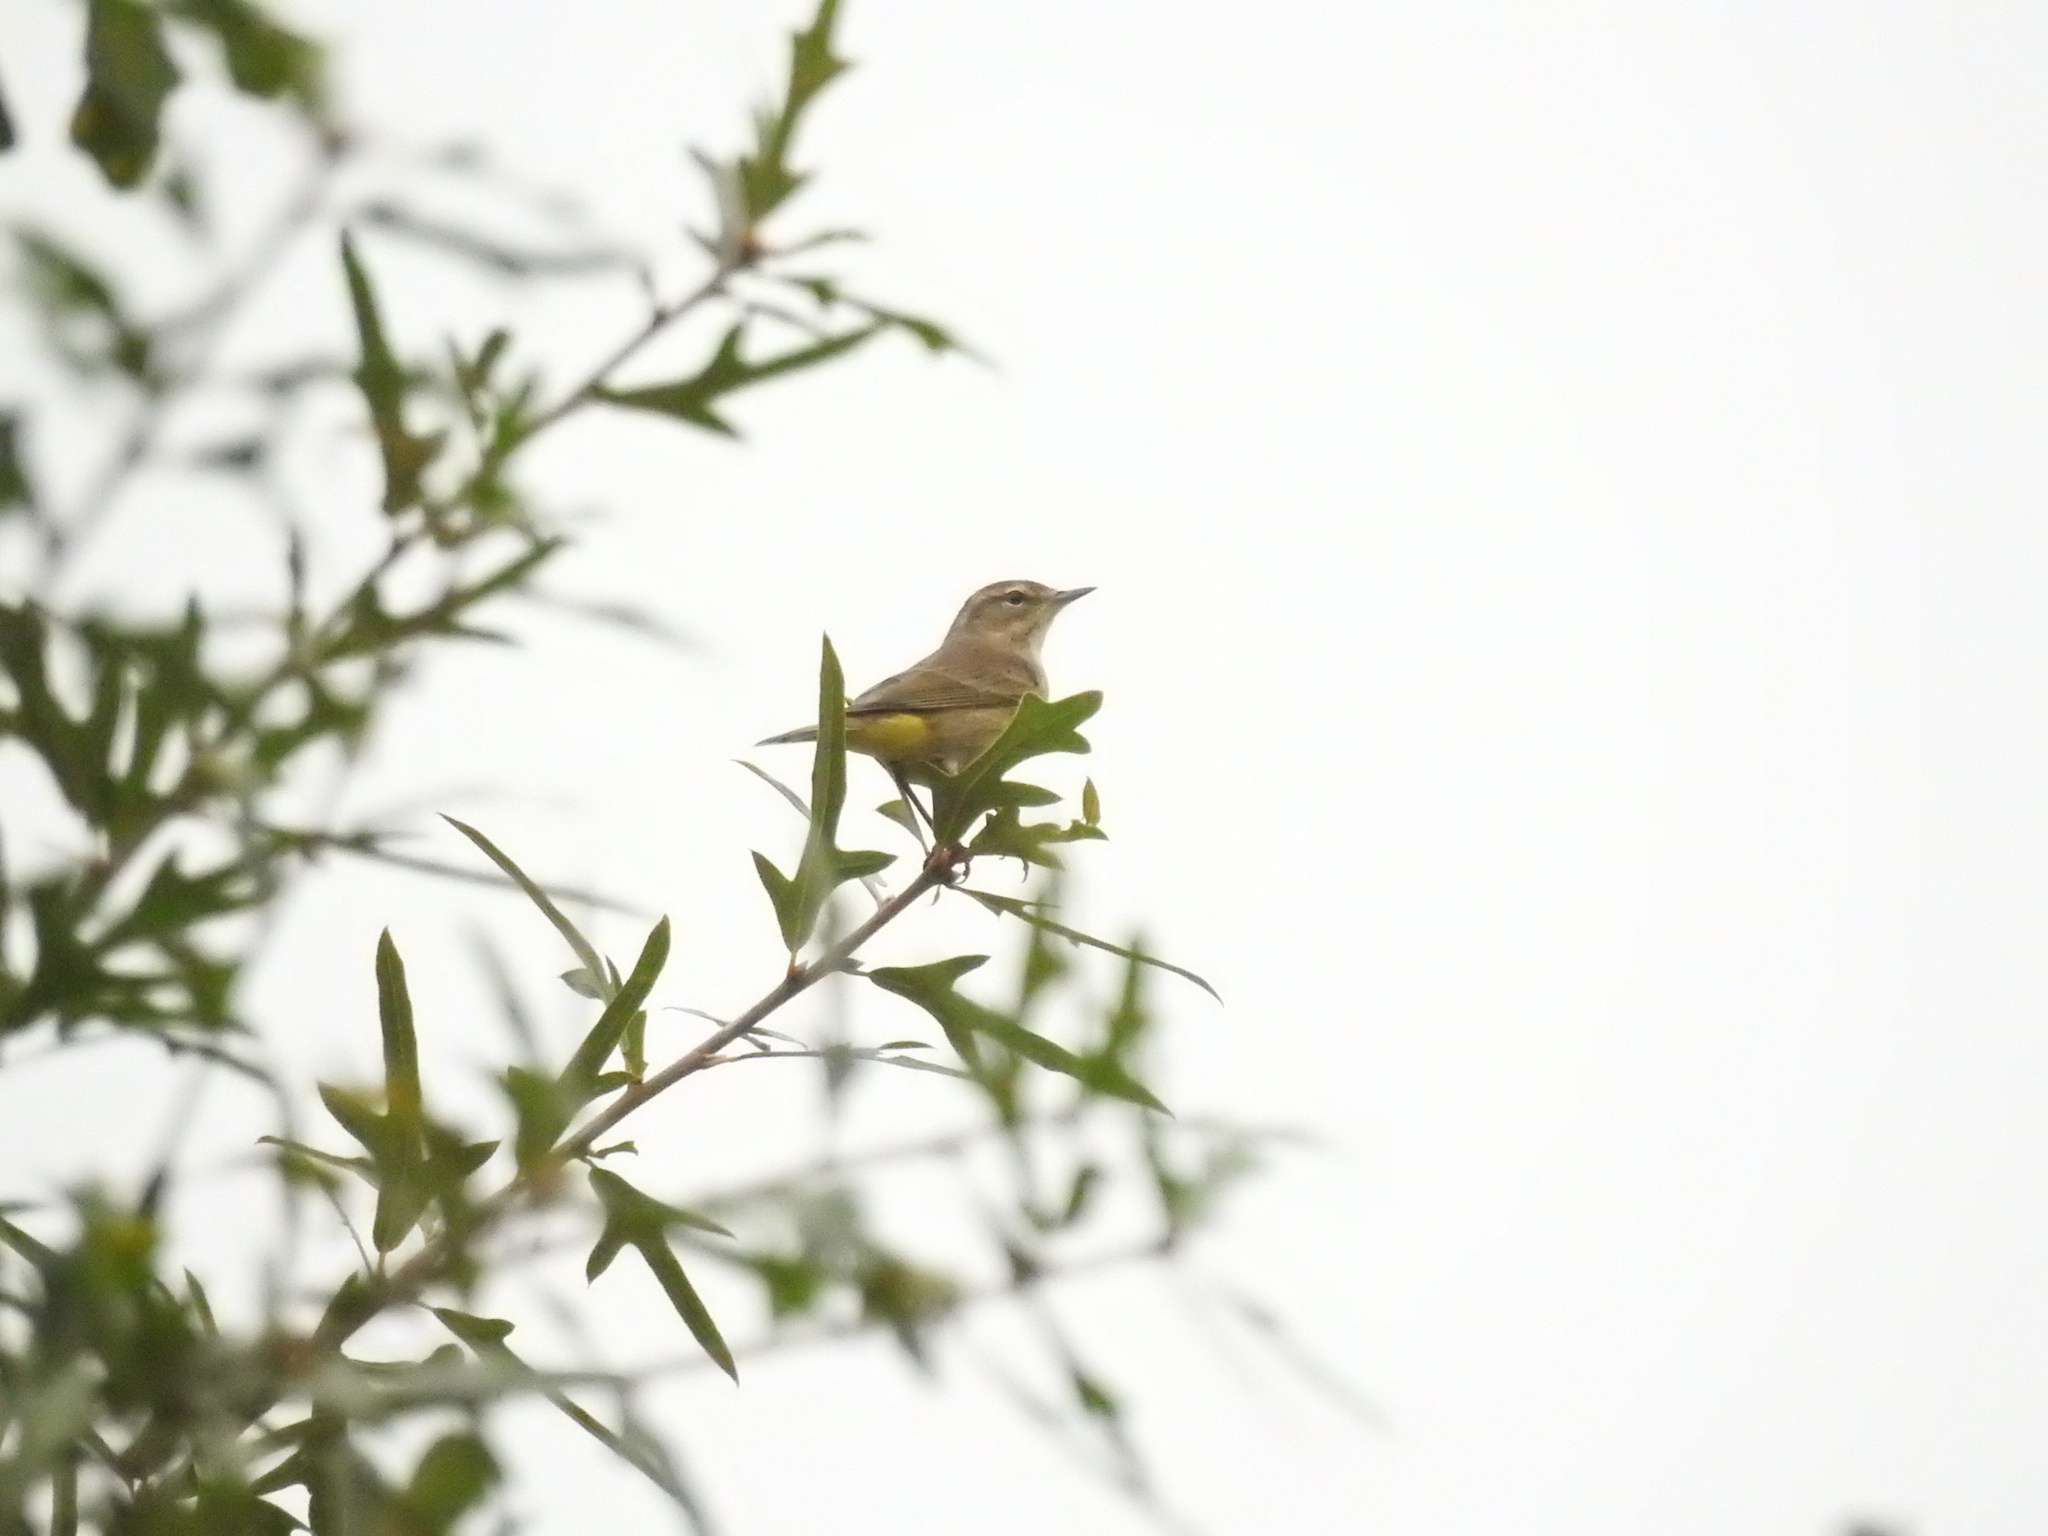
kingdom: Animalia
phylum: Chordata
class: Aves
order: Passeriformes
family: Parulidae
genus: Setophaga
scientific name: Setophaga palmarum
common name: Palm warbler
